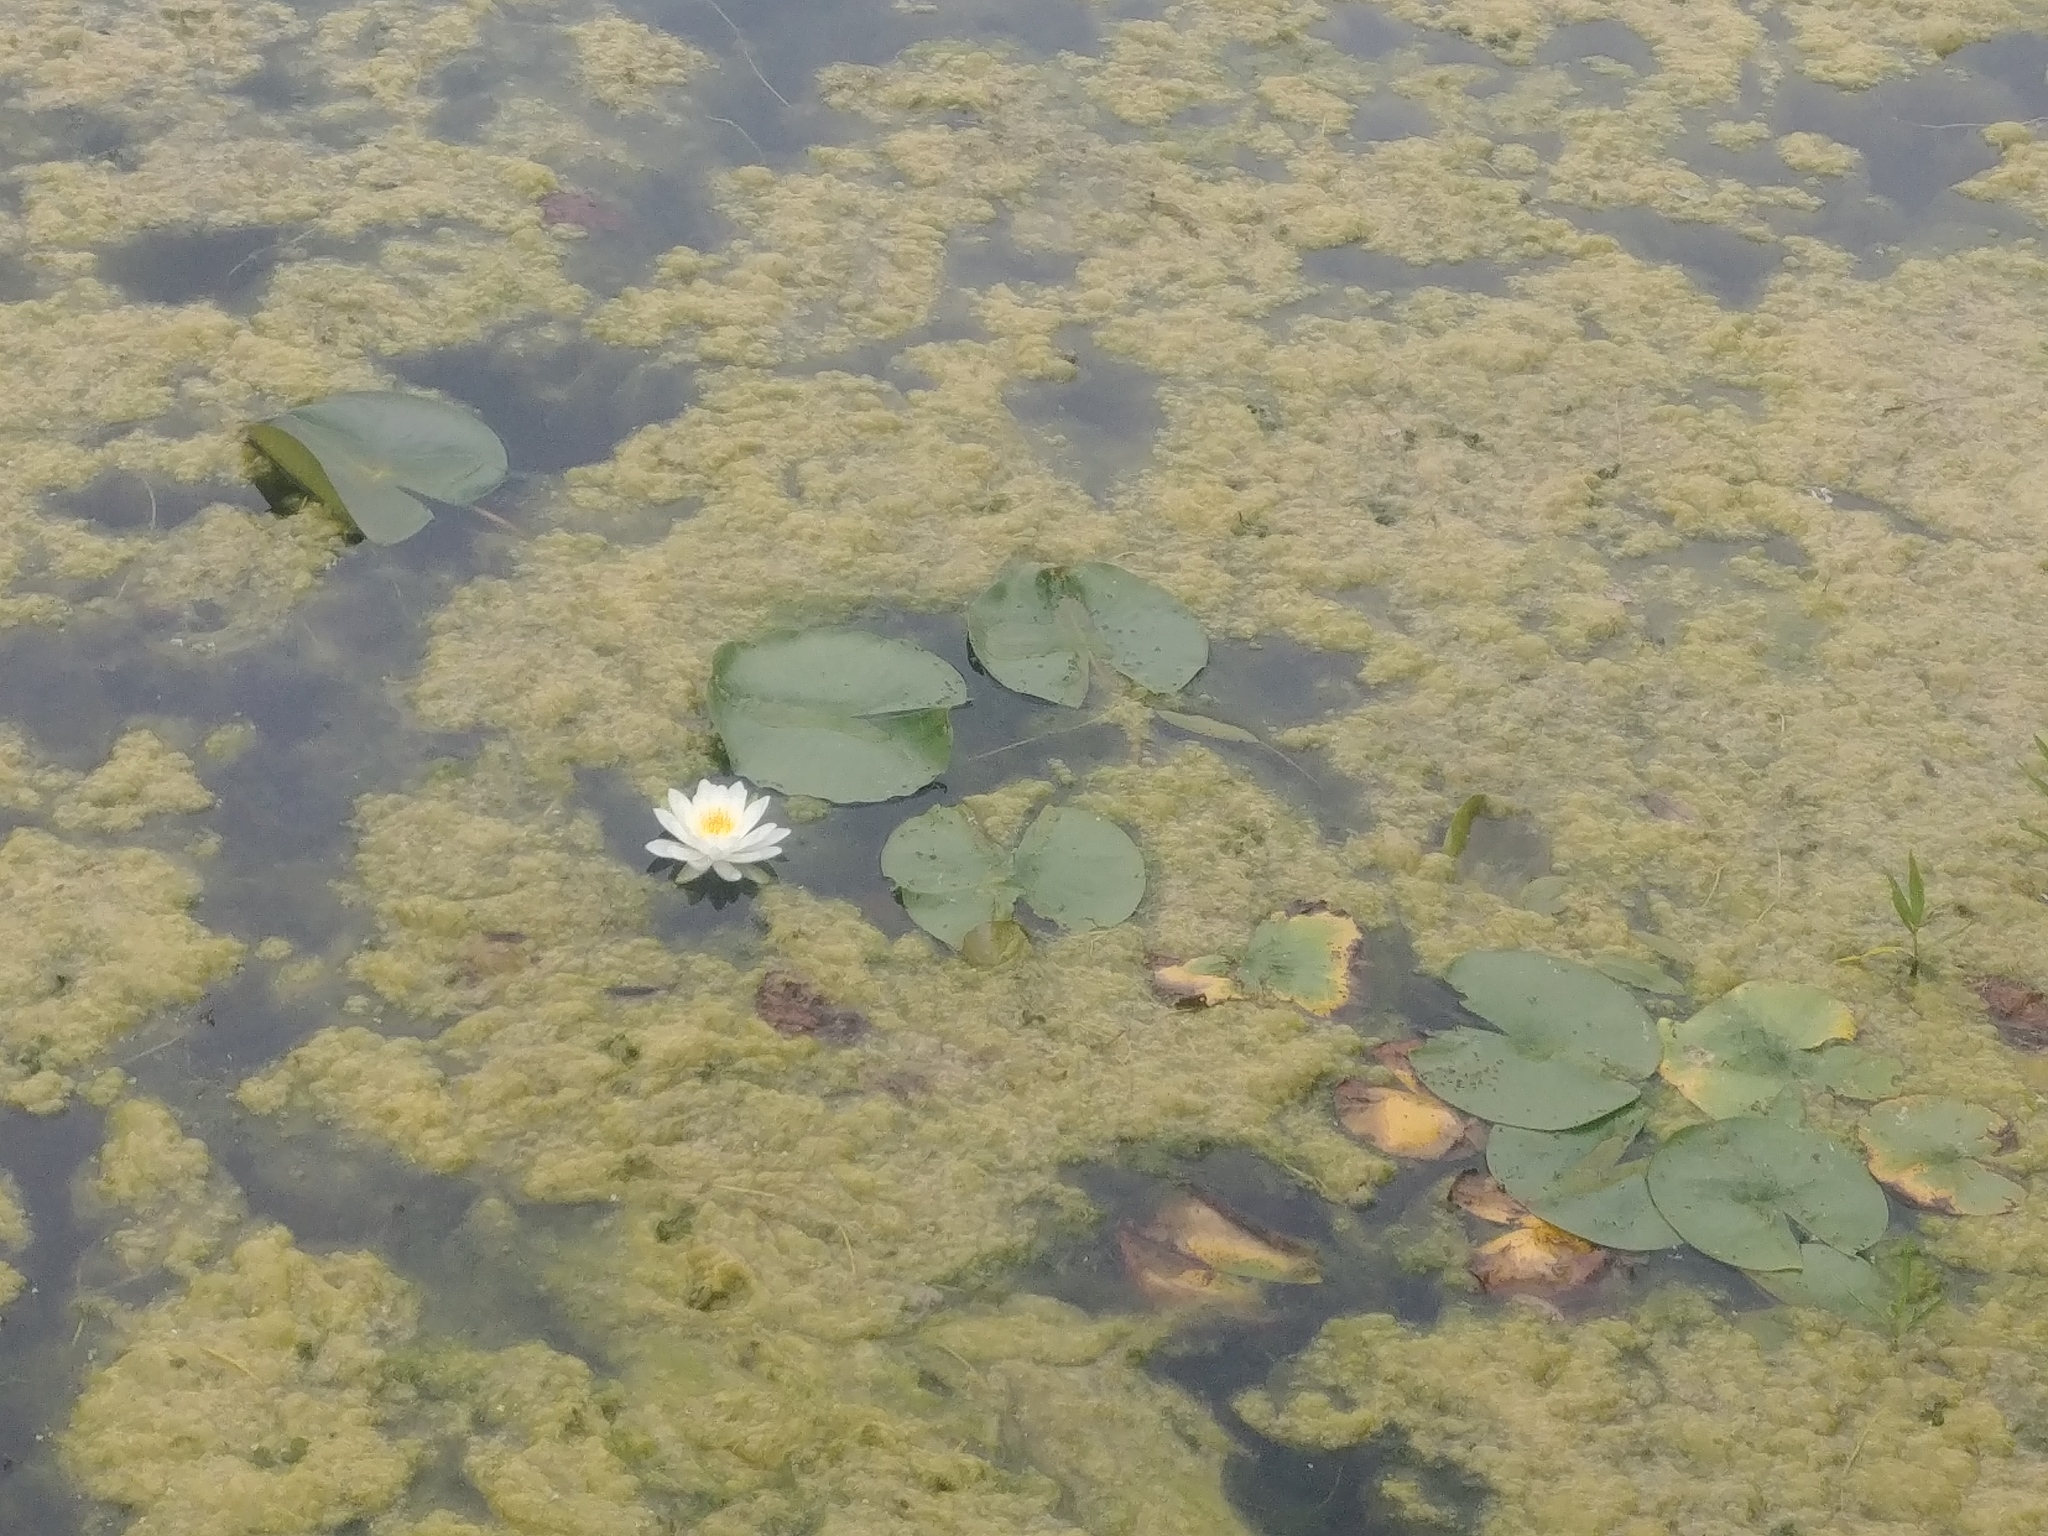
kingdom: Plantae
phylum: Tracheophyta
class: Magnoliopsida
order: Nymphaeales
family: Nymphaeaceae
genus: Nymphaea
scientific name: Nymphaea odorata
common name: Fragrant water-lily
